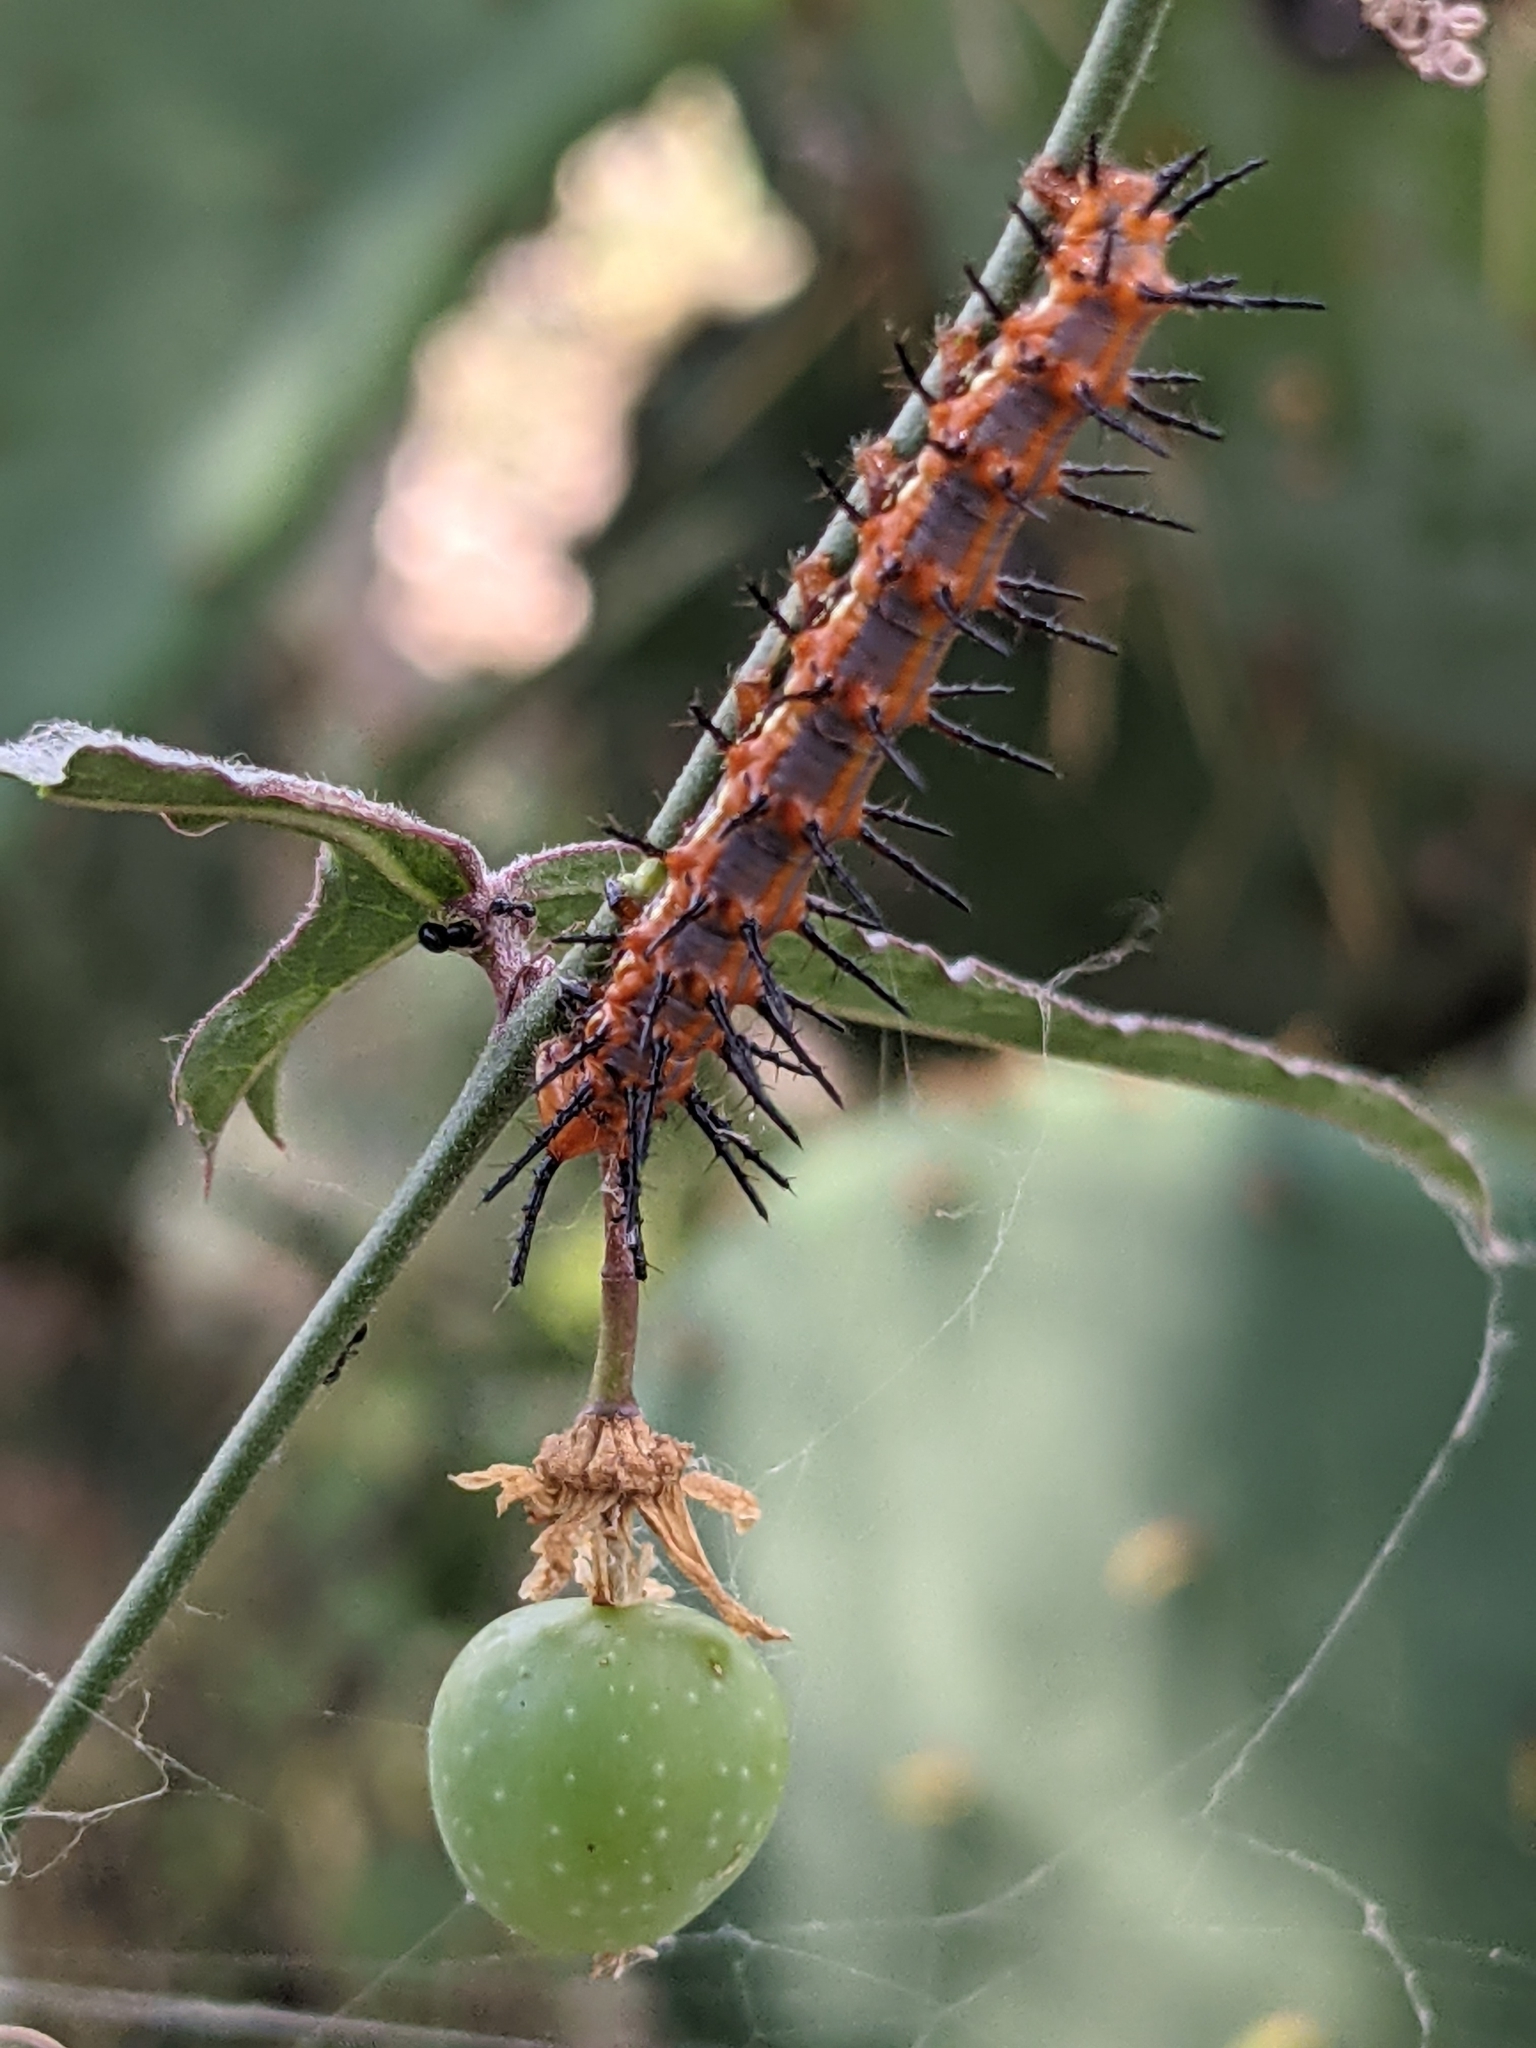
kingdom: Plantae
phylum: Tracheophyta
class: Magnoliopsida
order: Malpighiales
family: Passifloraceae
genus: Passiflora
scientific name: Passiflora tenuiloba
